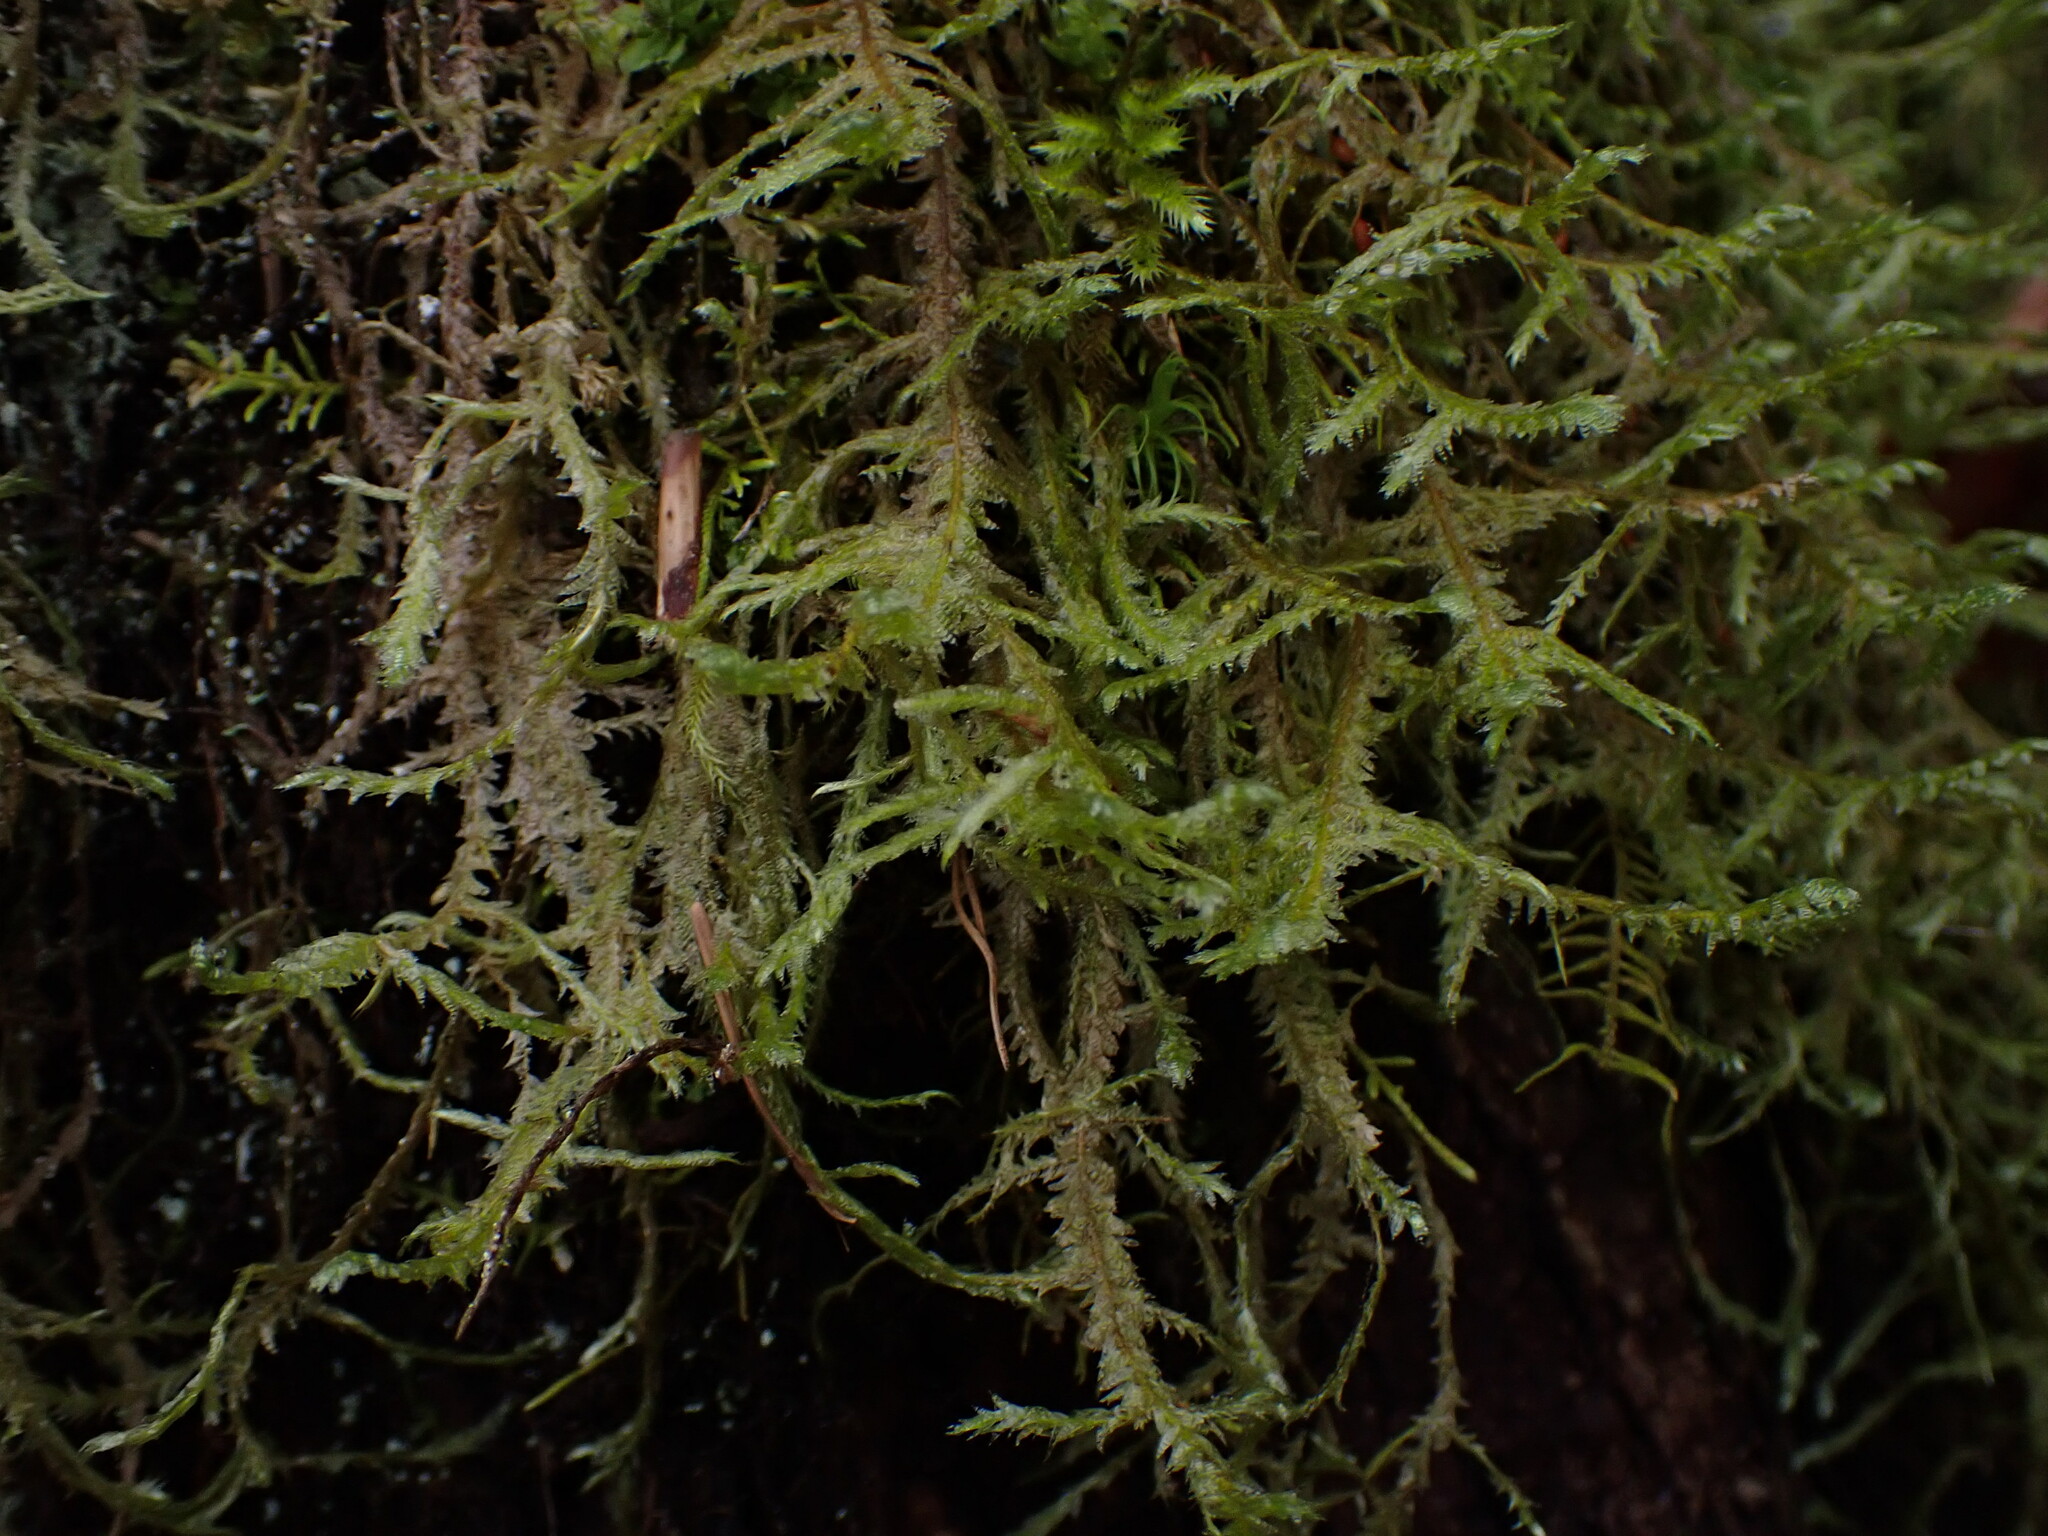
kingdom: Plantae
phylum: Bryophyta
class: Bryopsida
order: Hypnales
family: Neckeraceae
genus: Neckera
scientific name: Neckera douglasii
